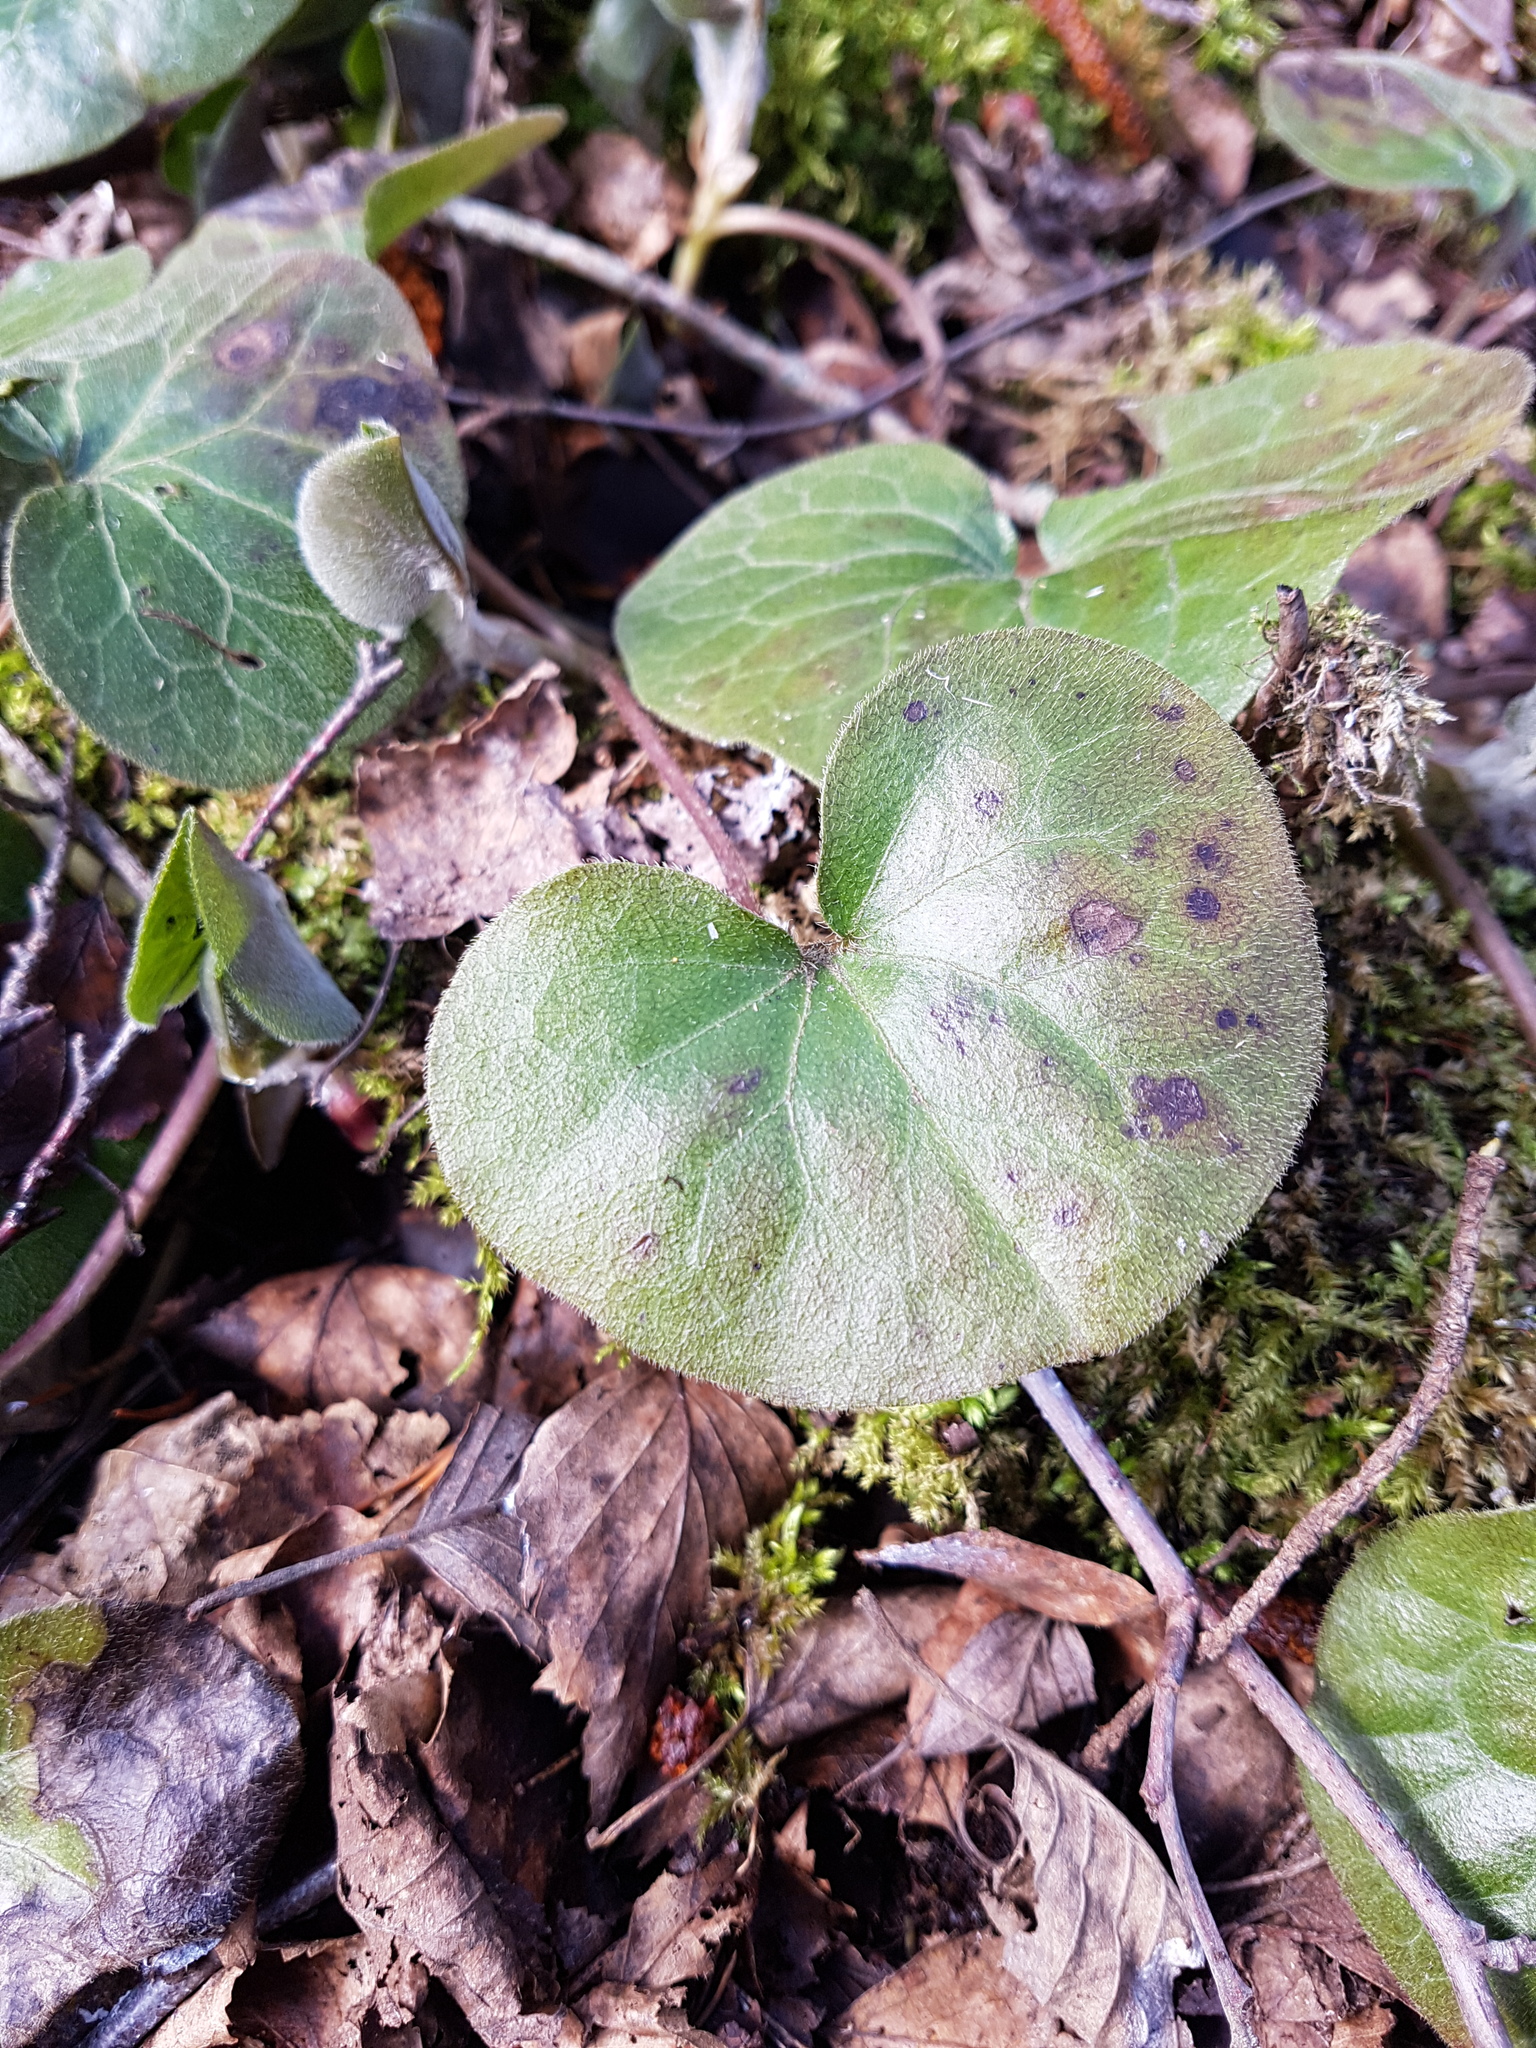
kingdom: Plantae
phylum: Tracheophyta
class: Magnoliopsida
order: Piperales
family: Aristolochiaceae
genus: Asarum
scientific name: Asarum europaeum
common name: Asarabacca
